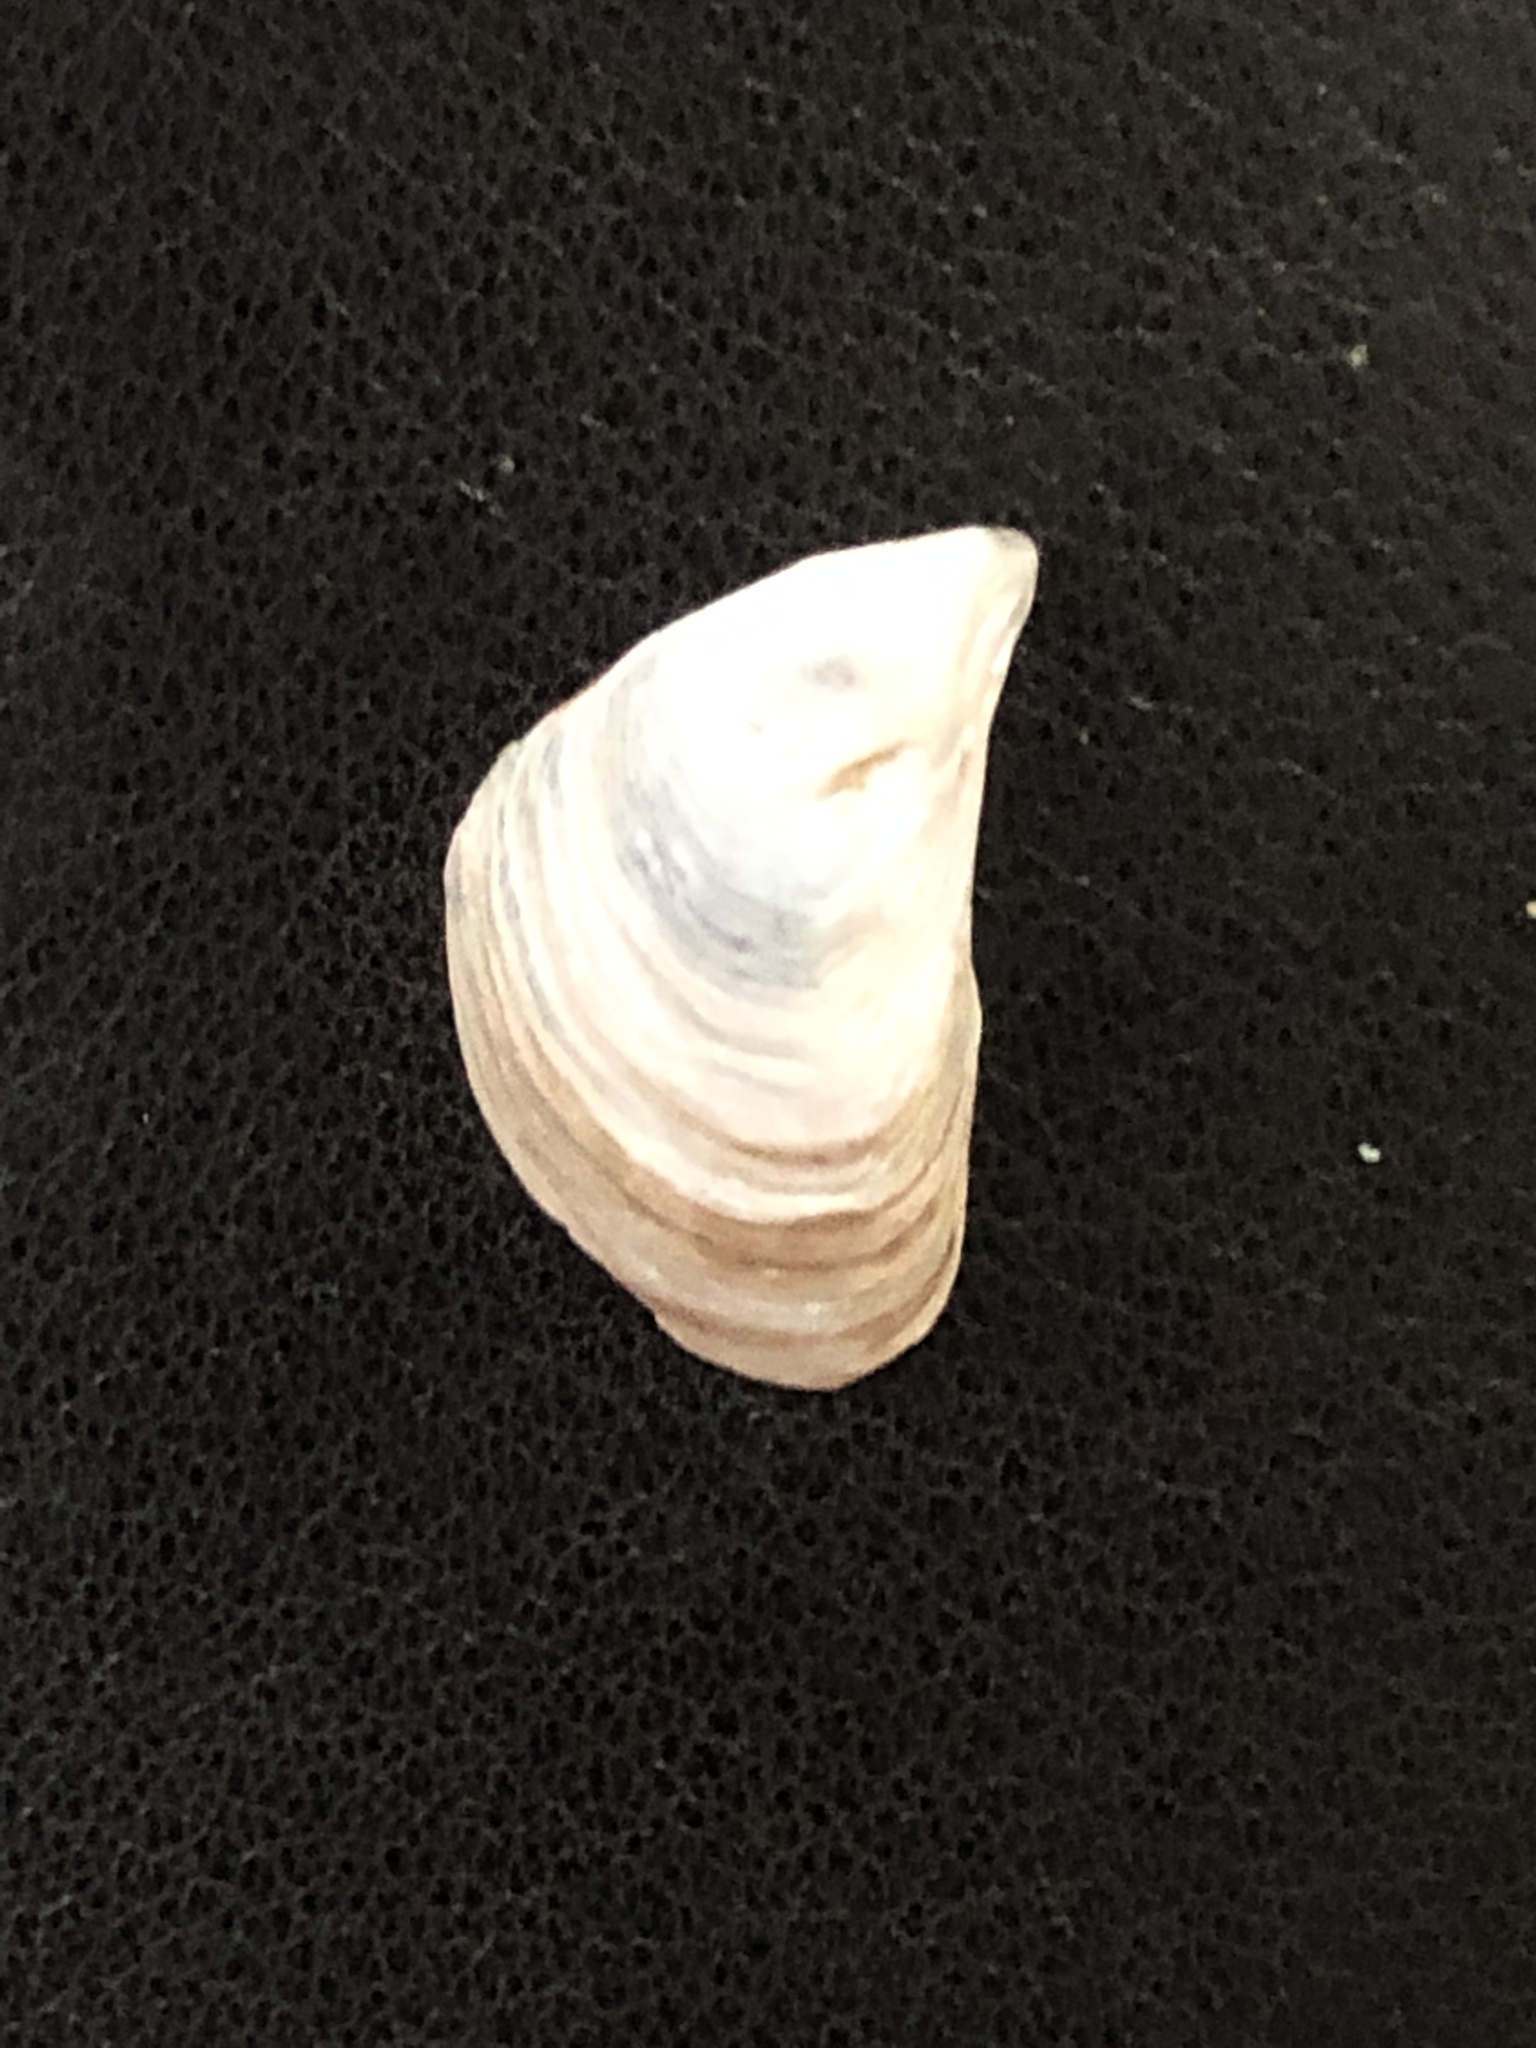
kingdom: Animalia
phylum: Mollusca
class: Bivalvia
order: Myida
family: Dreissenidae
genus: Dreissena
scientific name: Dreissena bugensis
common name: Quagga mussel
